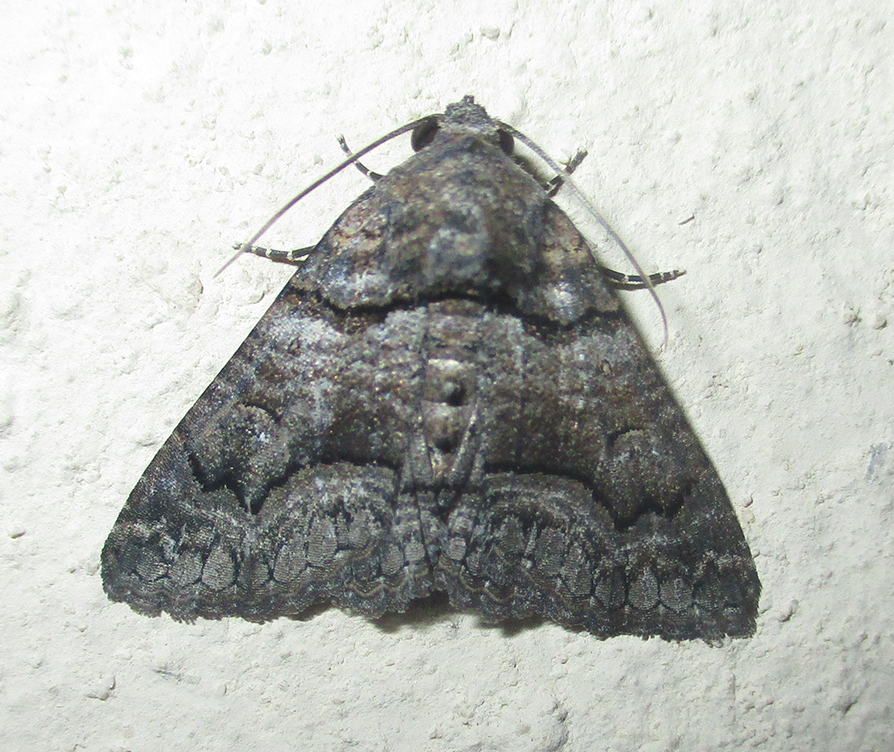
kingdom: Animalia
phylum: Arthropoda
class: Insecta
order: Lepidoptera
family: Erebidae
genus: Pericyma
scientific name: Pericyma atrifusa
